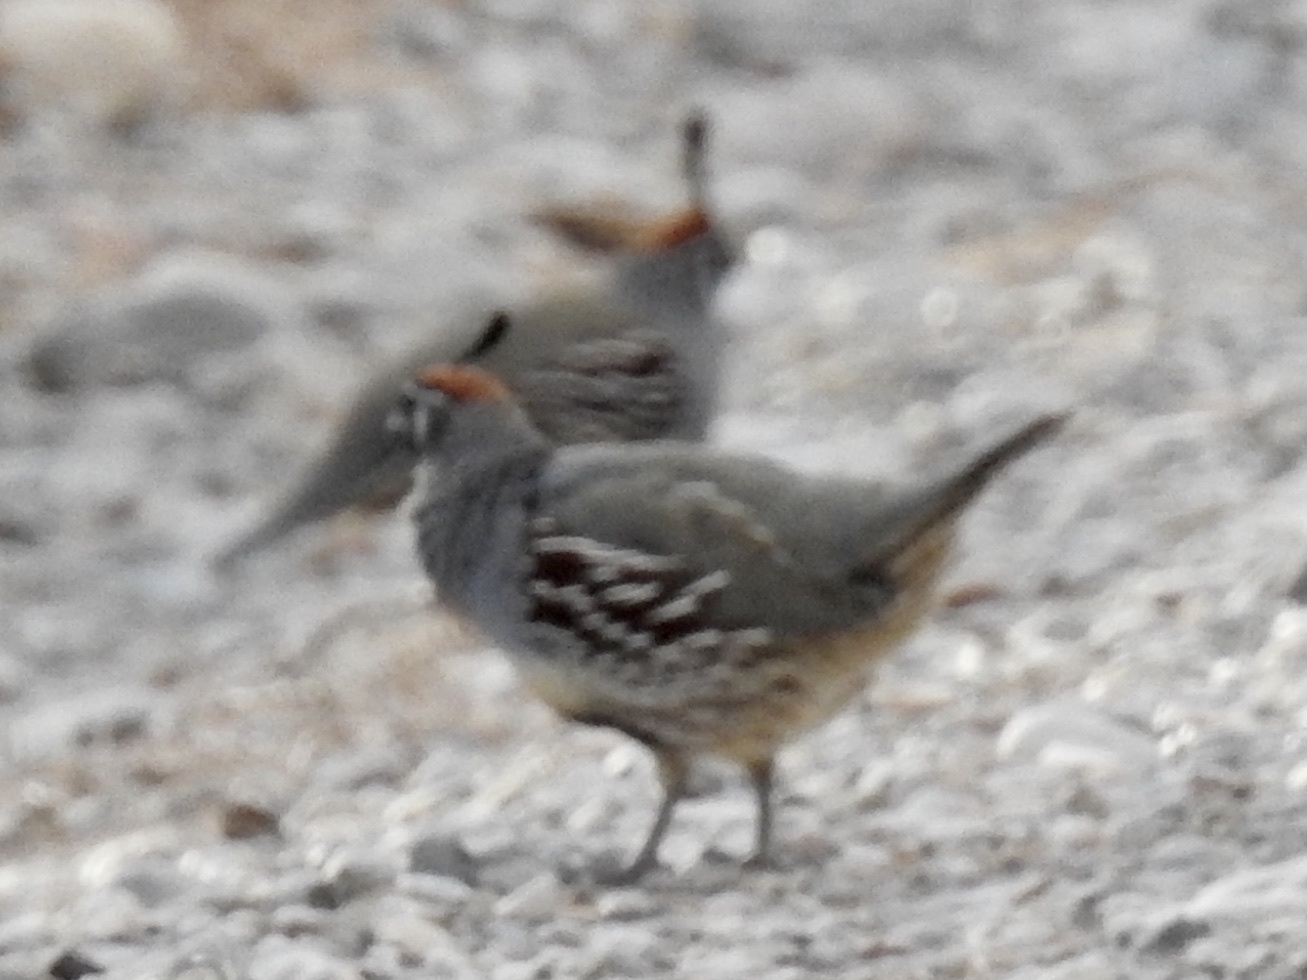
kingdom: Animalia
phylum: Chordata
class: Aves
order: Galliformes
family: Odontophoridae
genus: Callipepla
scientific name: Callipepla gambelii
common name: Gambel's quail
